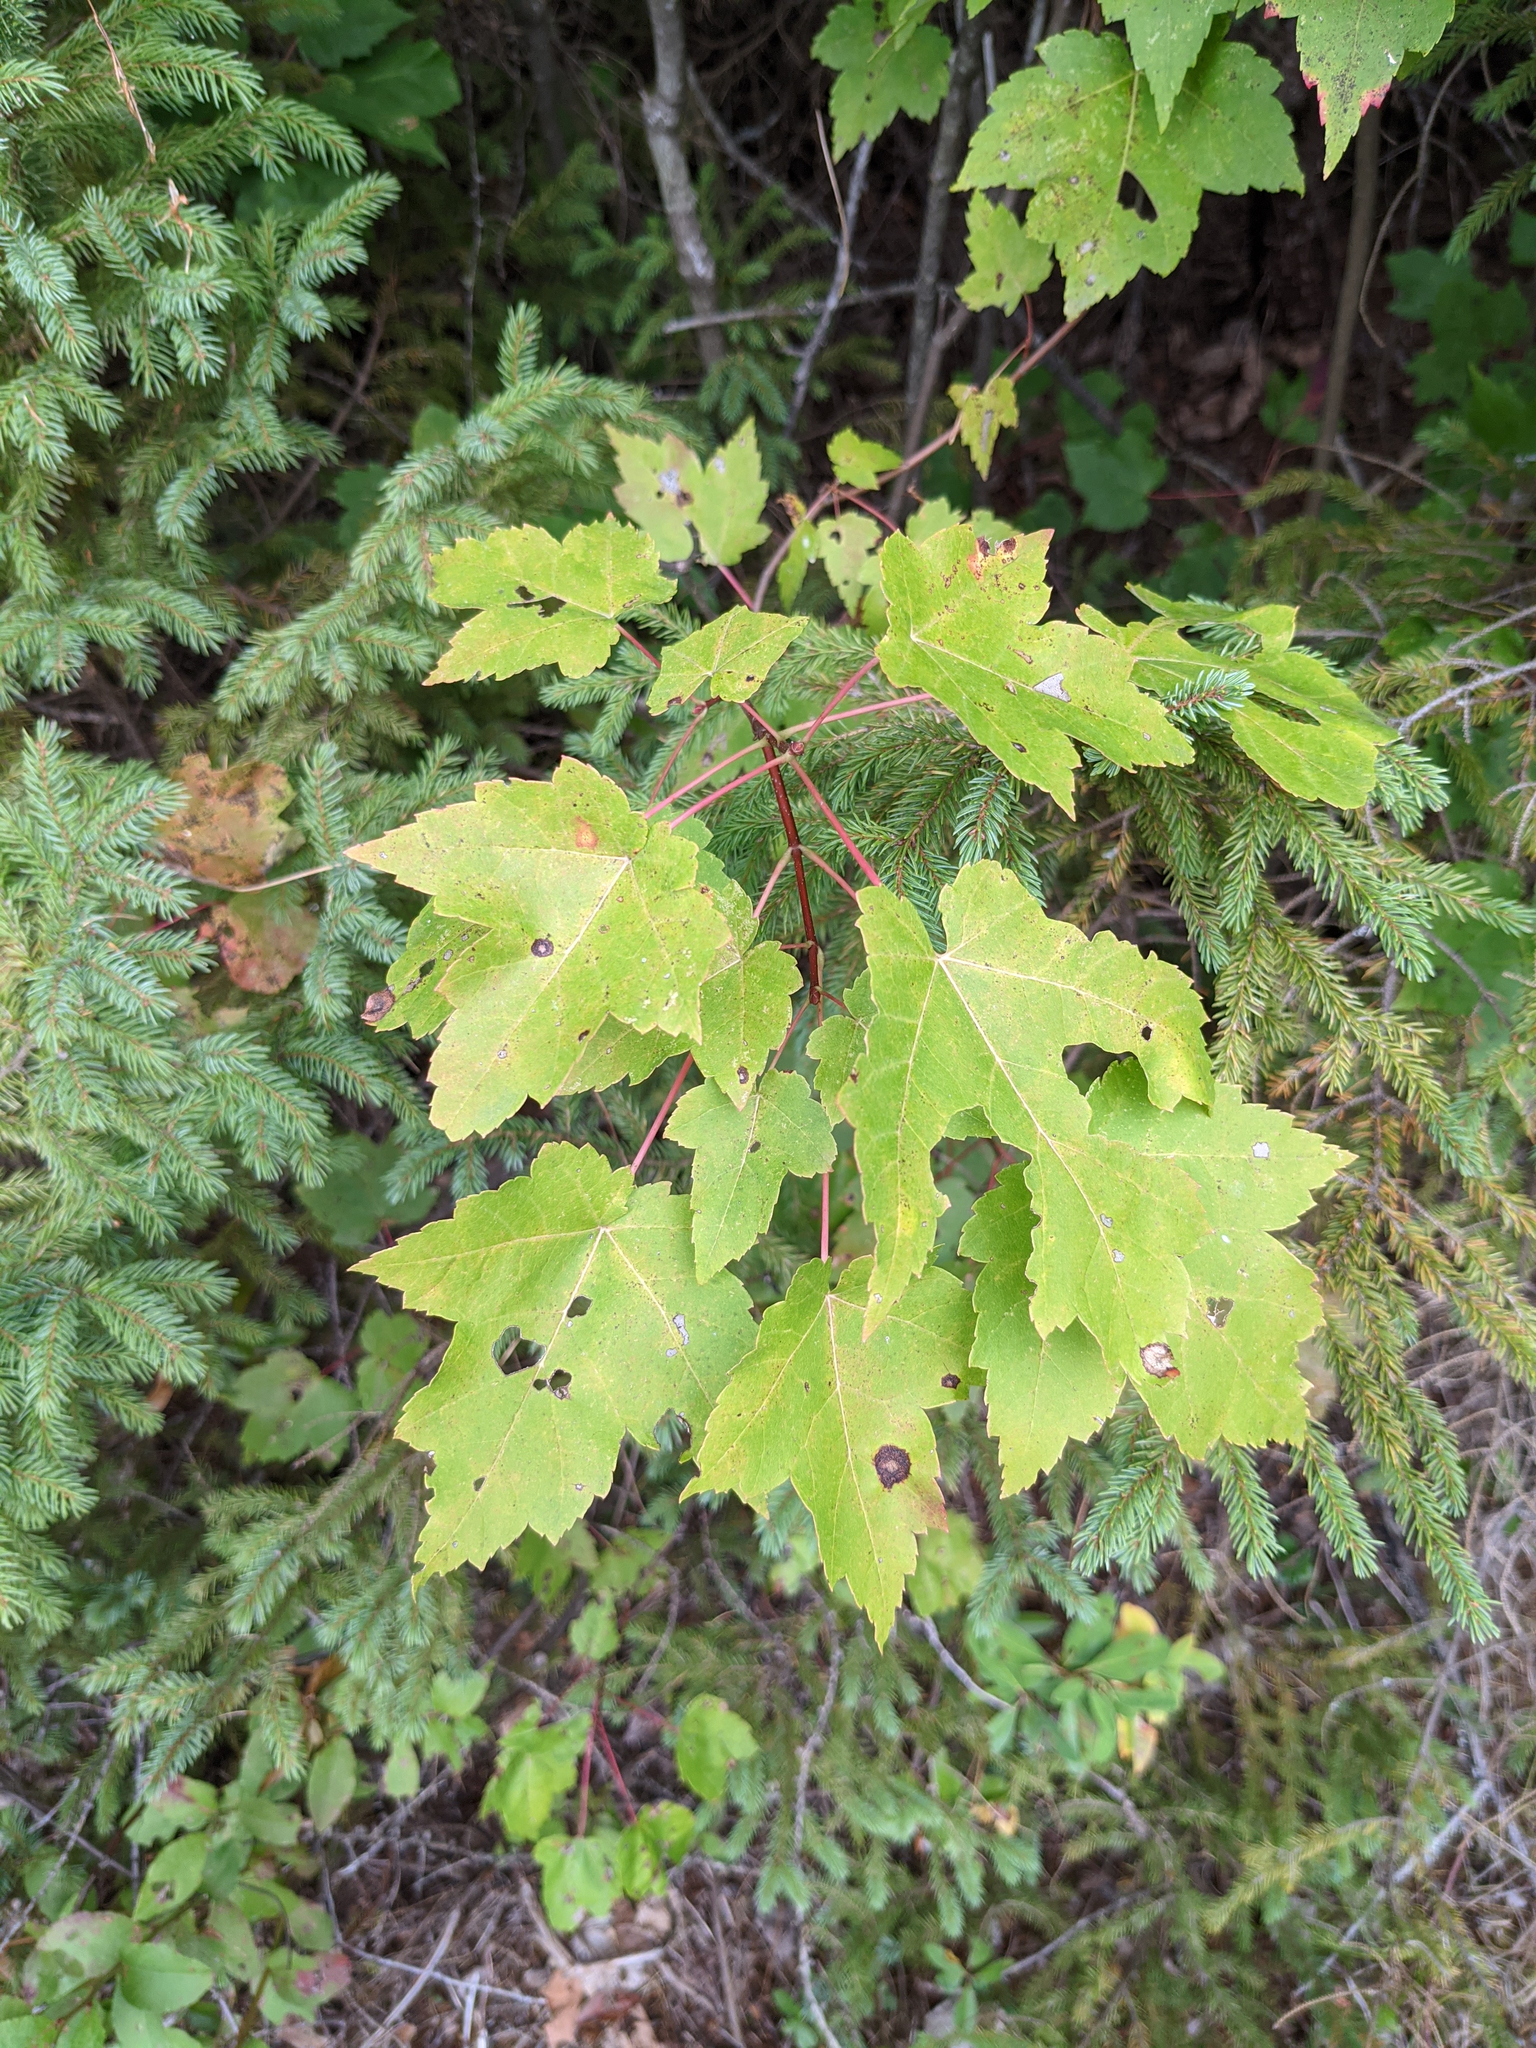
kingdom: Plantae
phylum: Tracheophyta
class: Magnoliopsida
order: Sapindales
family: Sapindaceae
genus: Acer
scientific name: Acer rubrum
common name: Red maple
